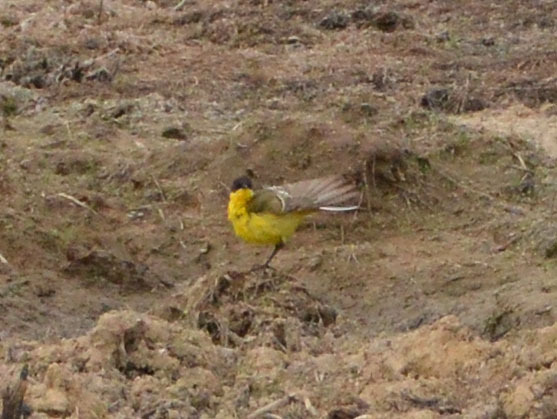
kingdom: Animalia
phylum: Chordata
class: Aves
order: Passeriformes
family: Motacillidae
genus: Motacilla
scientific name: Motacilla flava
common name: Western yellow wagtail
